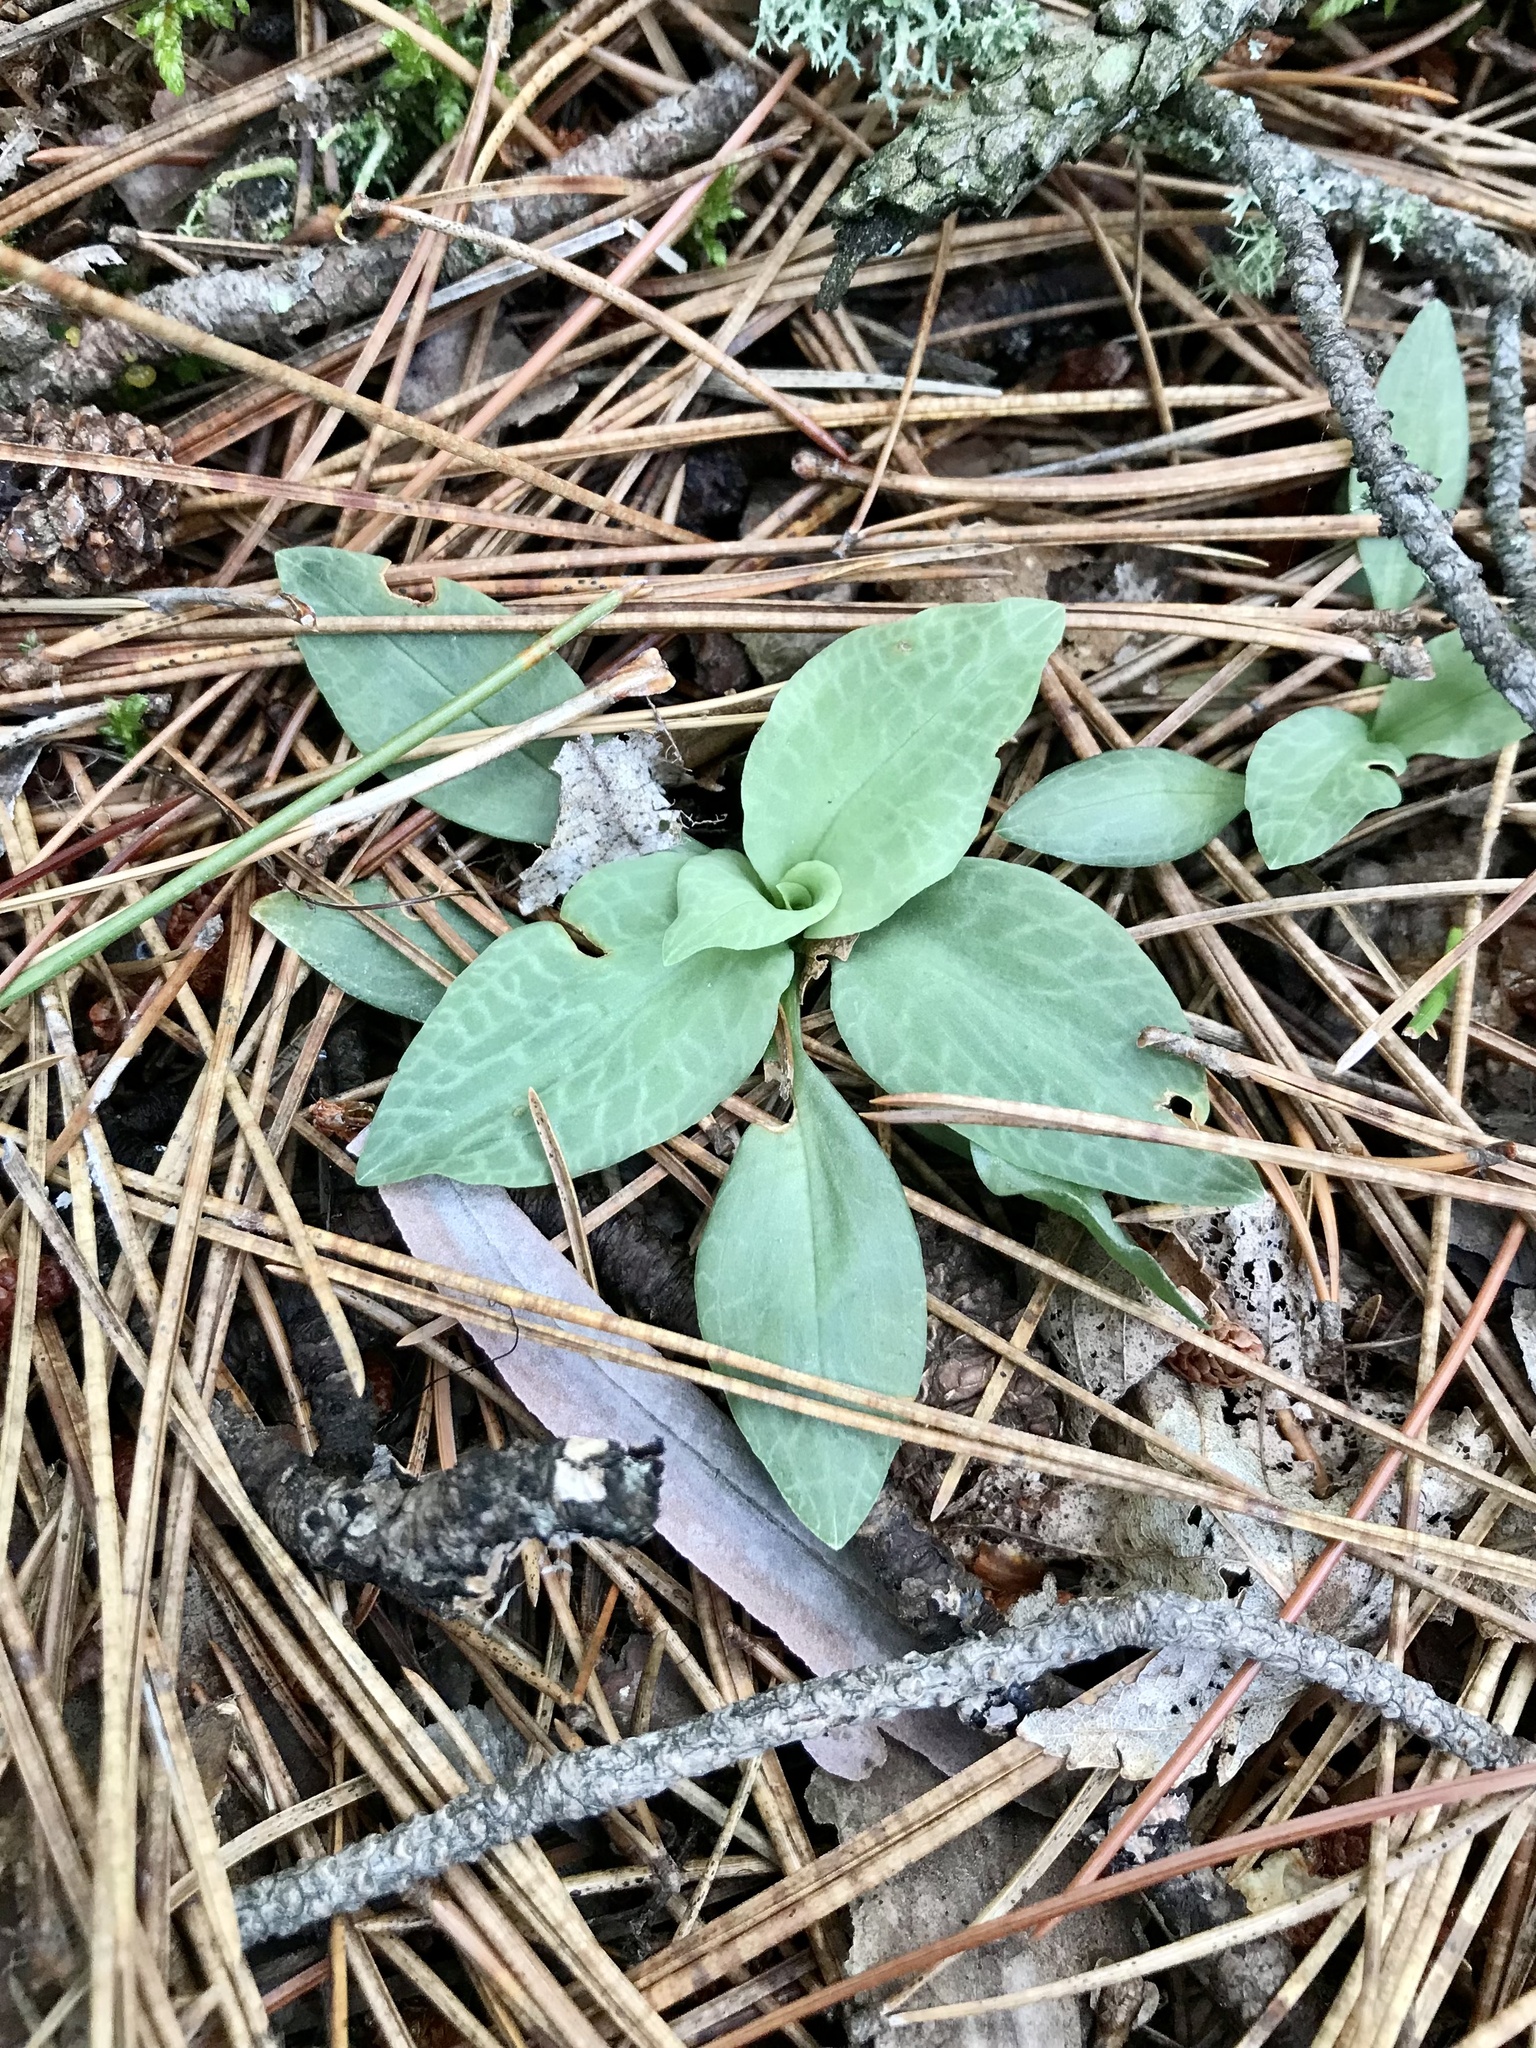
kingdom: Plantae
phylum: Tracheophyta
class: Liliopsida
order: Asparagales
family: Orchidaceae
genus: Goodyera
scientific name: Goodyera tesselata
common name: Checkered rattlesnake-plantain
